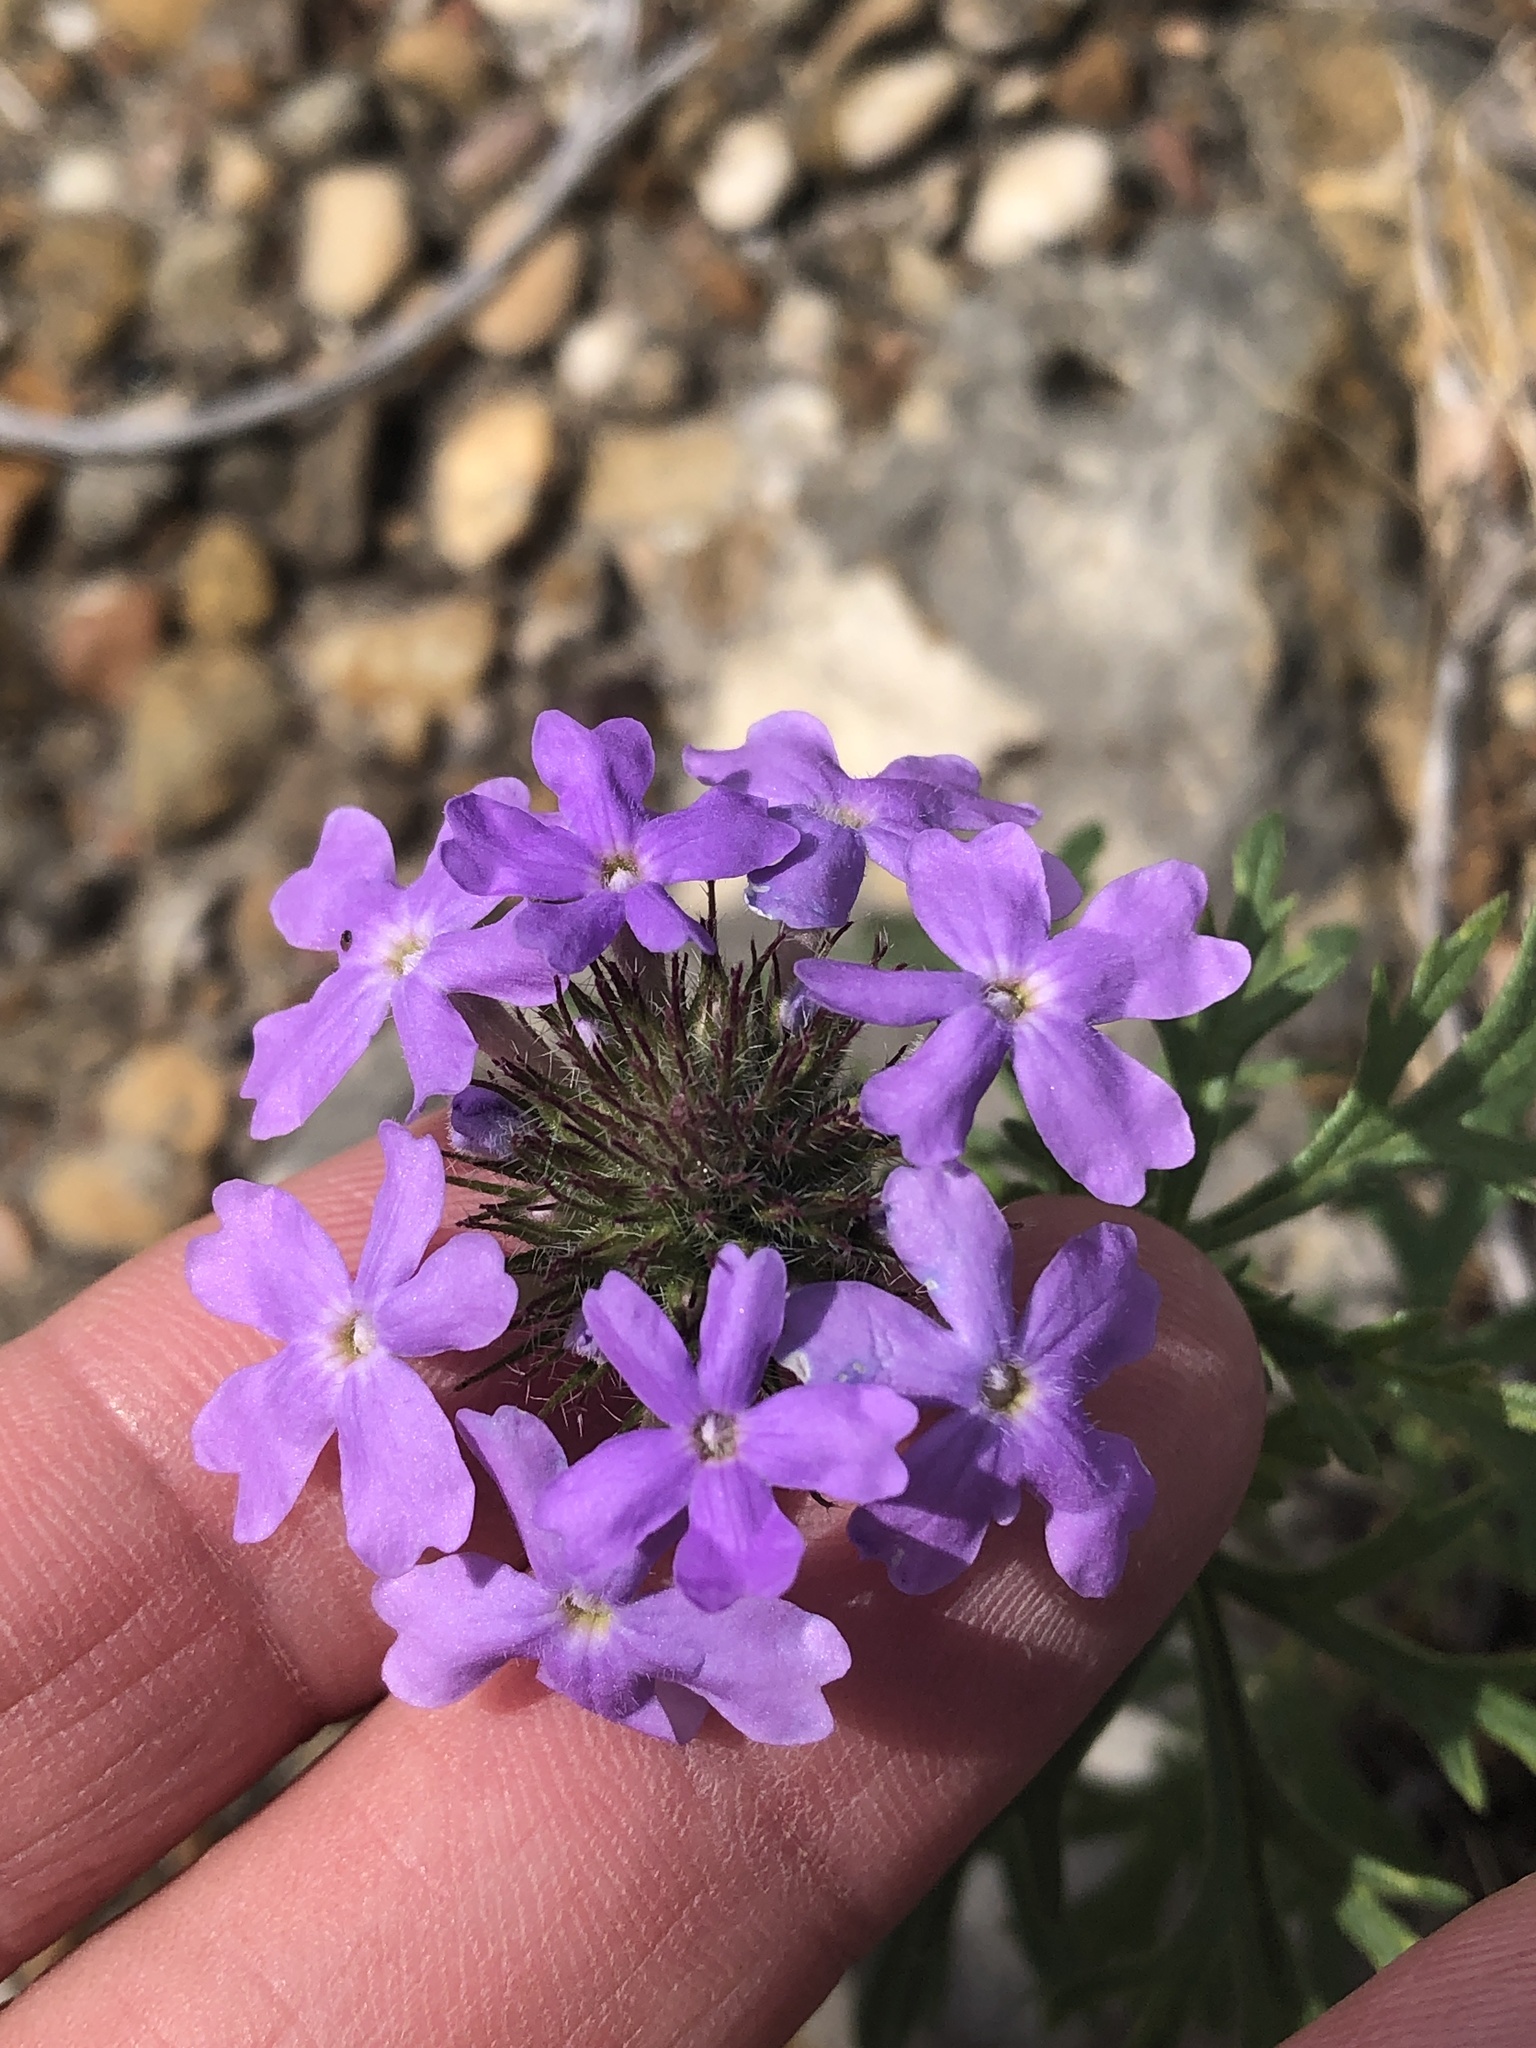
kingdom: Plantae
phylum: Tracheophyta
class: Magnoliopsida
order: Lamiales
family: Verbenaceae
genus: Verbena
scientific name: Verbena bipinnatifida
